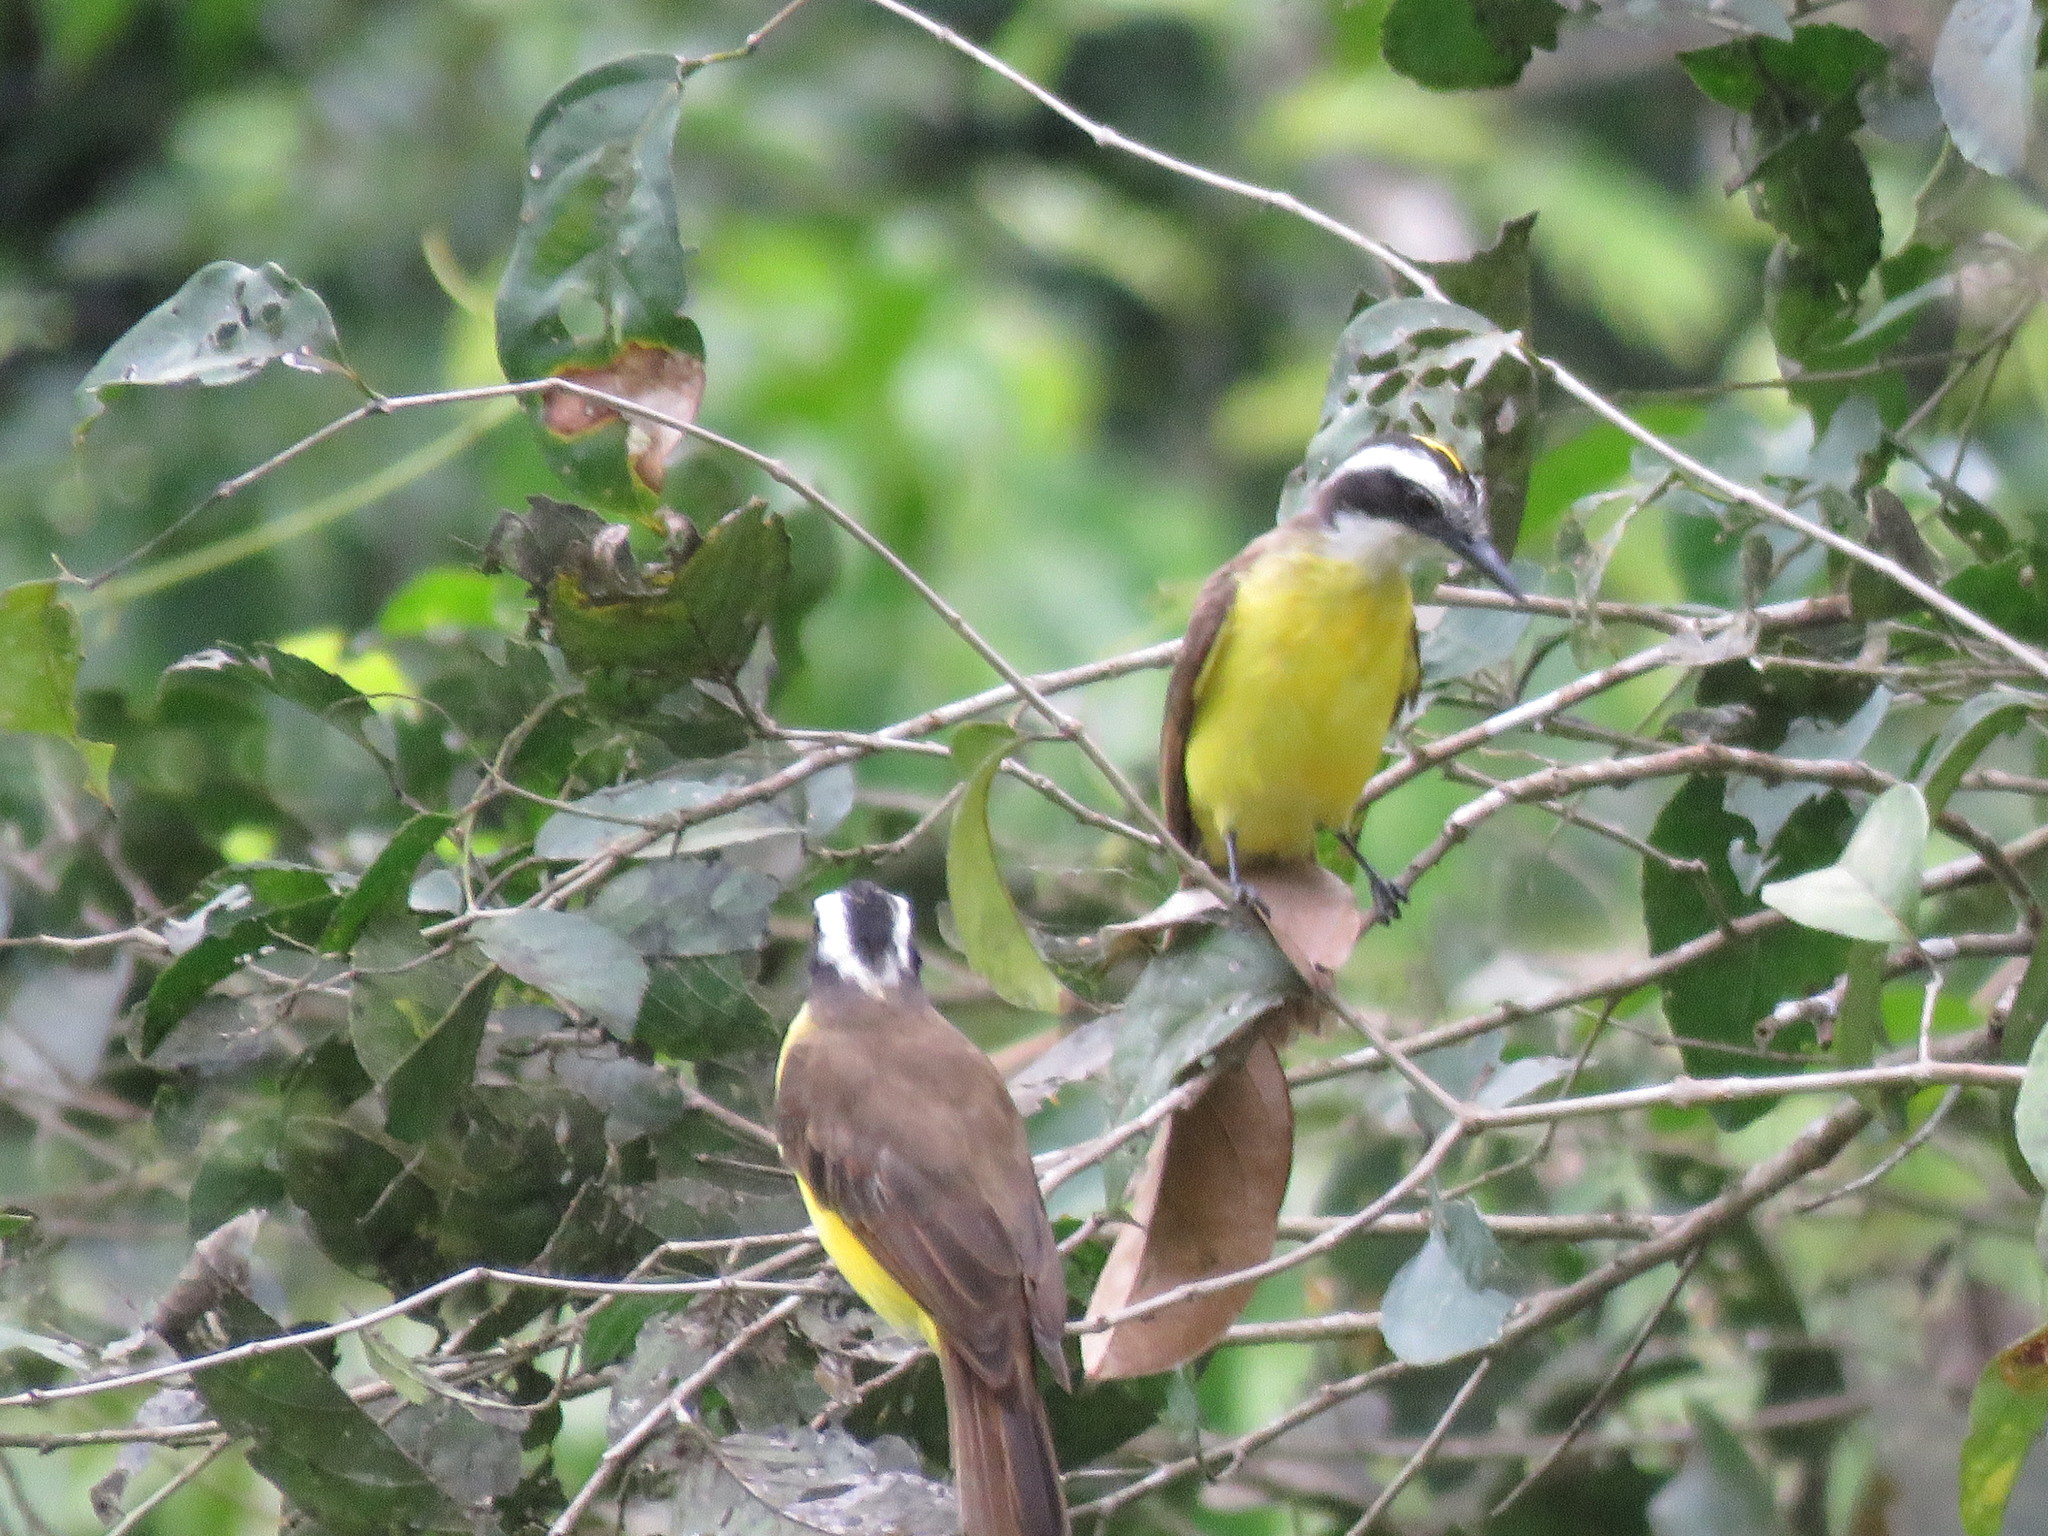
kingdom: Animalia
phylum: Chordata
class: Aves
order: Passeriformes
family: Tyrannidae
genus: Pitangus
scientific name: Pitangus lictor
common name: Lesser kiskadee
